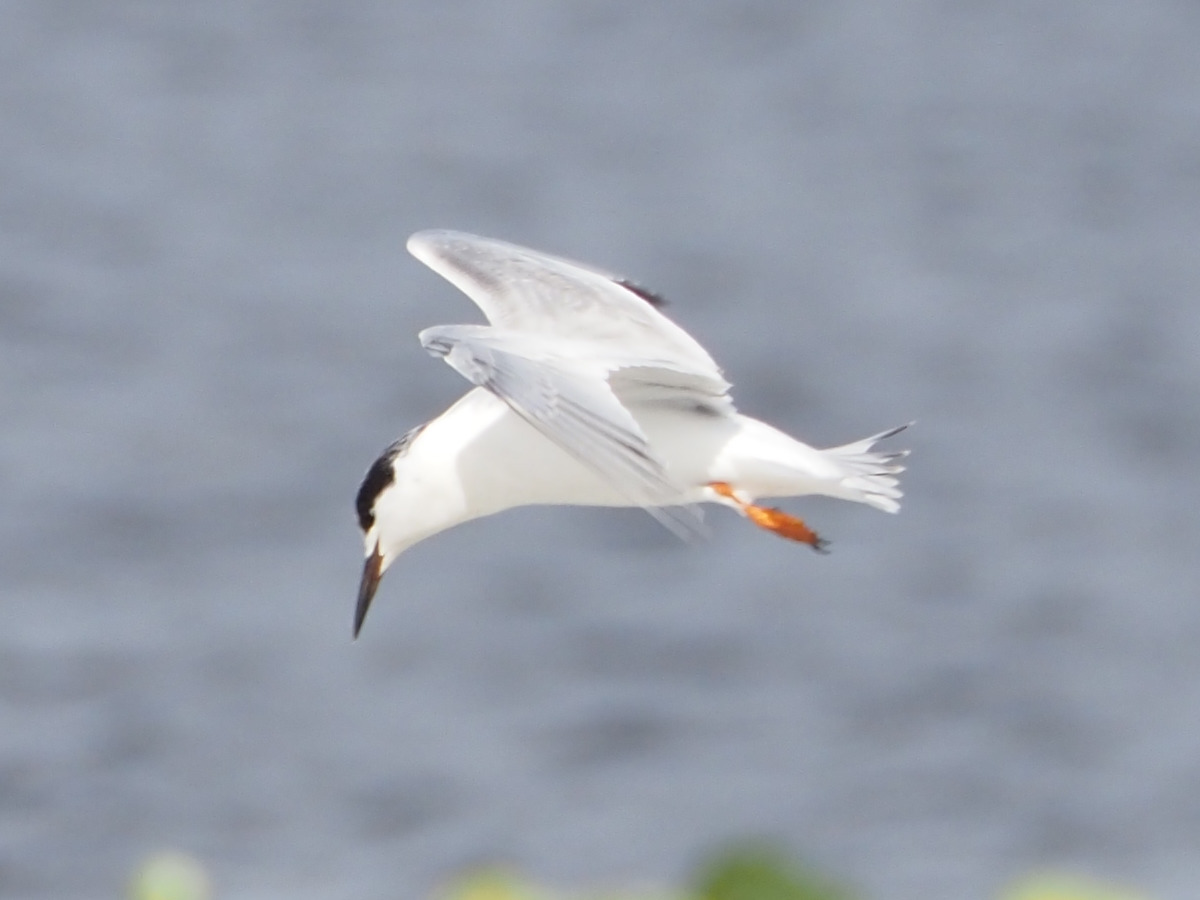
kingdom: Animalia
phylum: Chordata
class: Aves
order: Charadriiformes
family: Laridae
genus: Sterna
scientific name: Sterna forsteri
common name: Forster's tern
